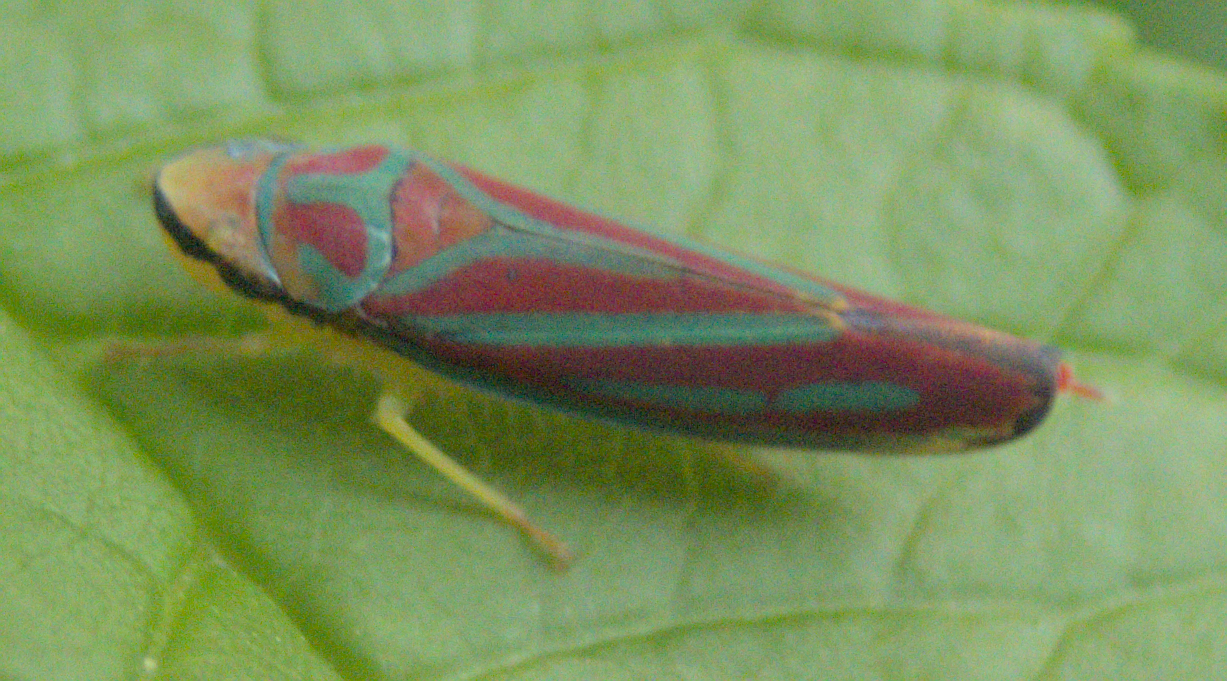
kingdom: Animalia
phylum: Arthropoda
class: Insecta
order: Hemiptera
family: Cicadellidae
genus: Graphocephala
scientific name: Graphocephala coccinea
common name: Candy-striped leafhopper
